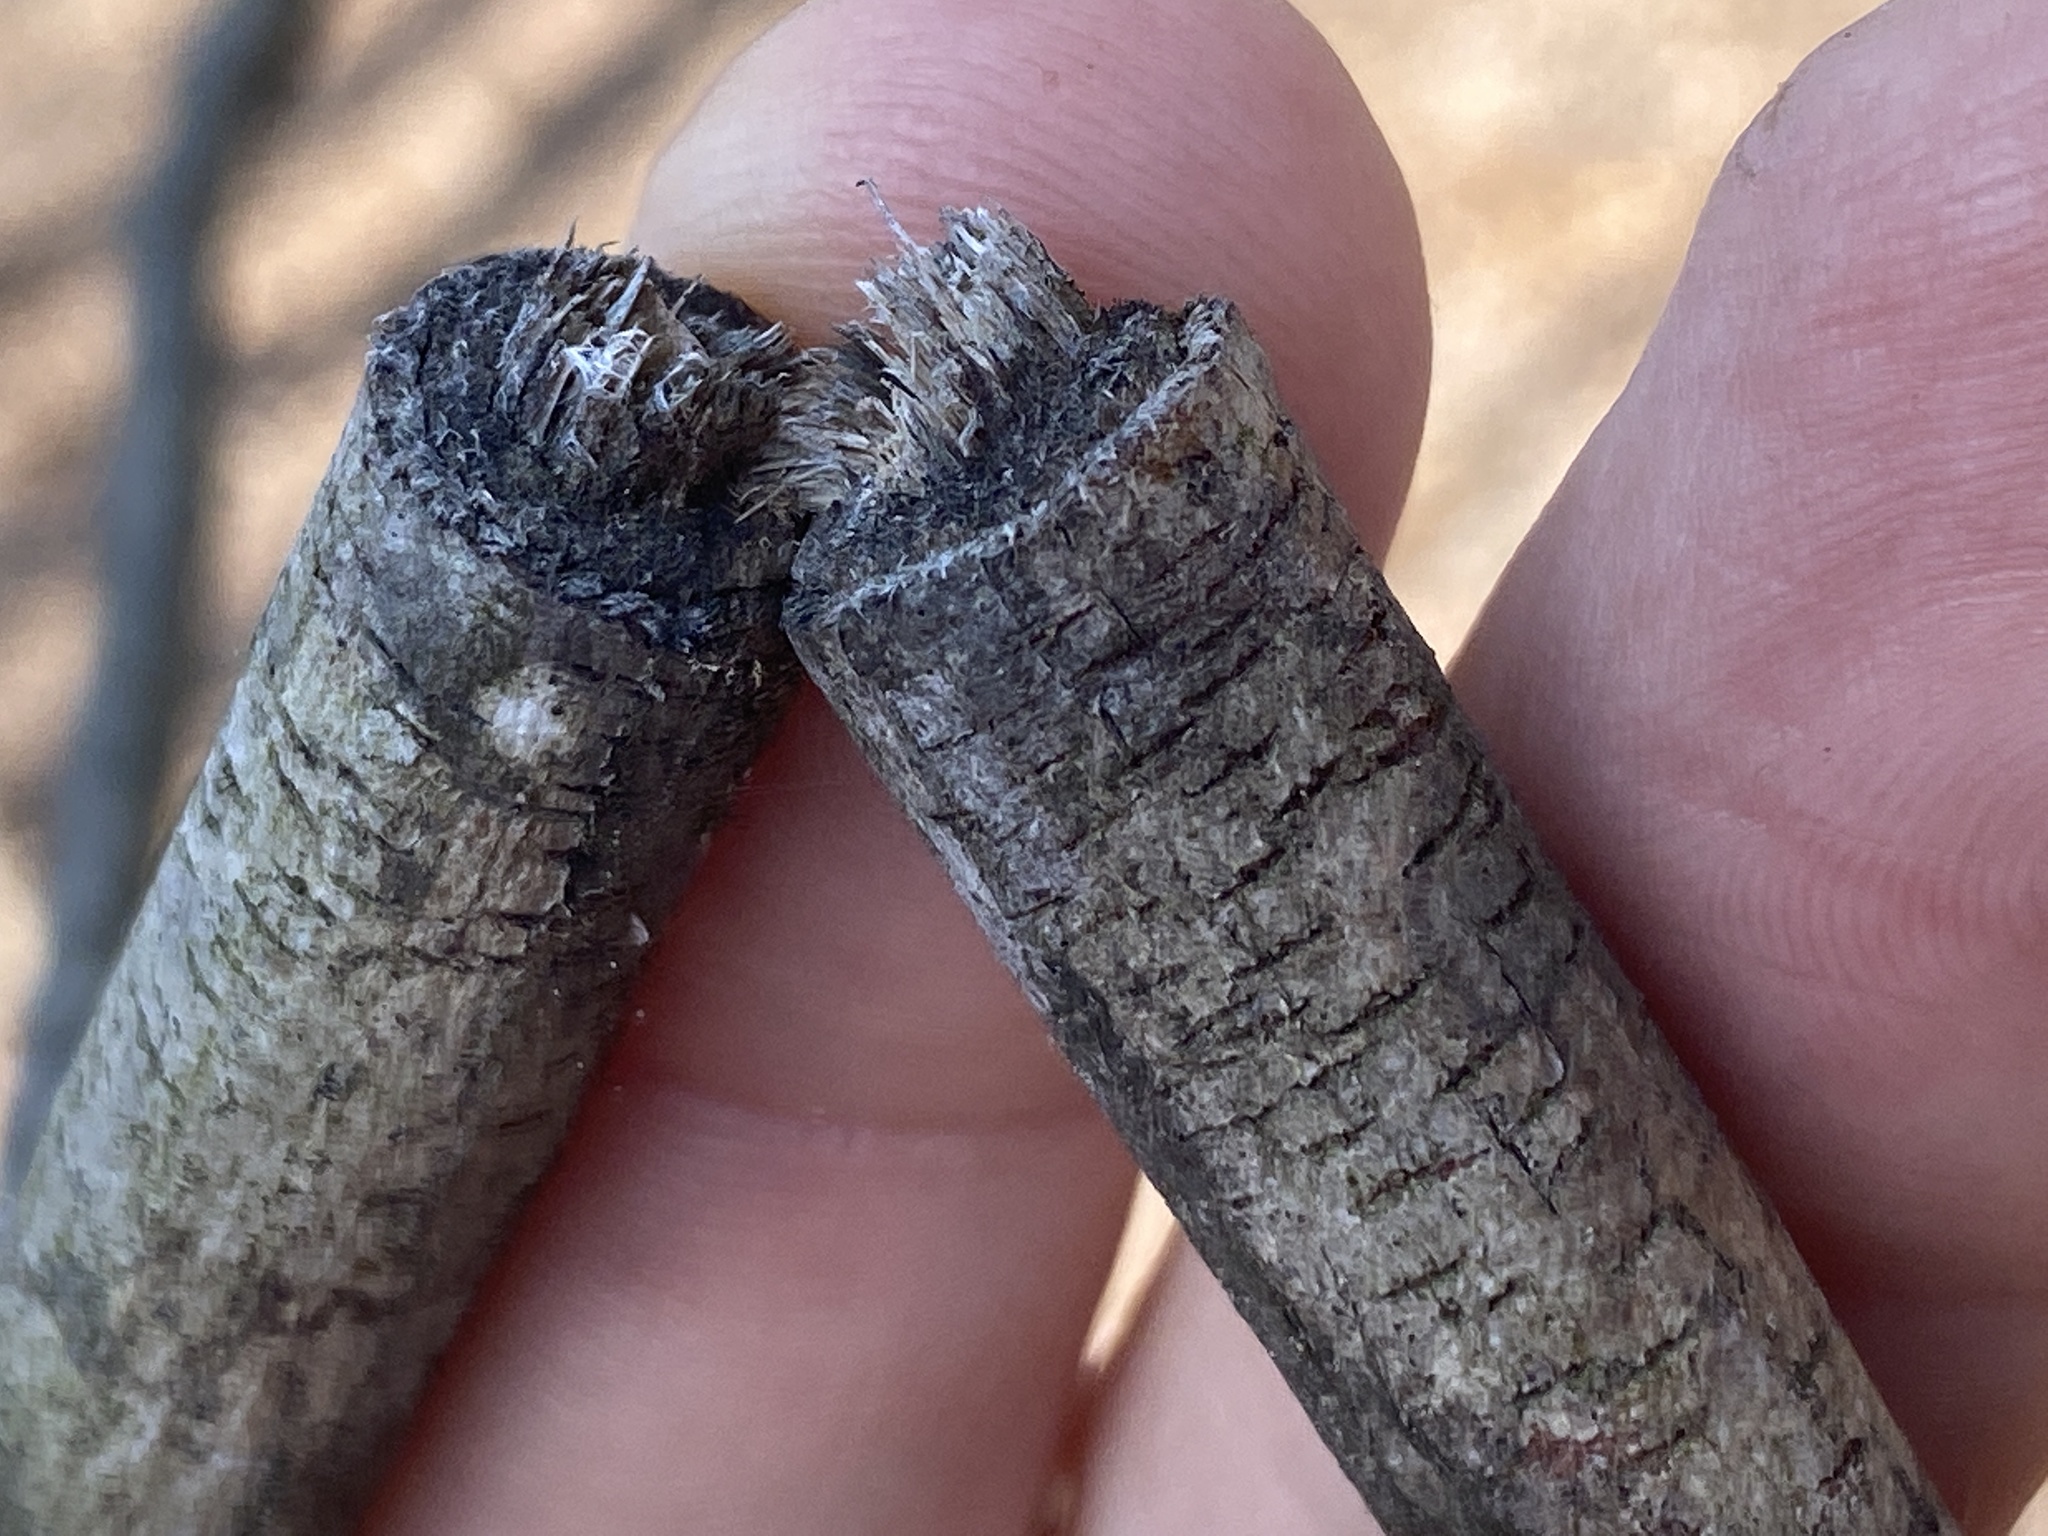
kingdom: Animalia
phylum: Arthropoda
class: Insecta
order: Coleoptera
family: Cerambycidae
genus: Oncideres
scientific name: Oncideres cingulata
